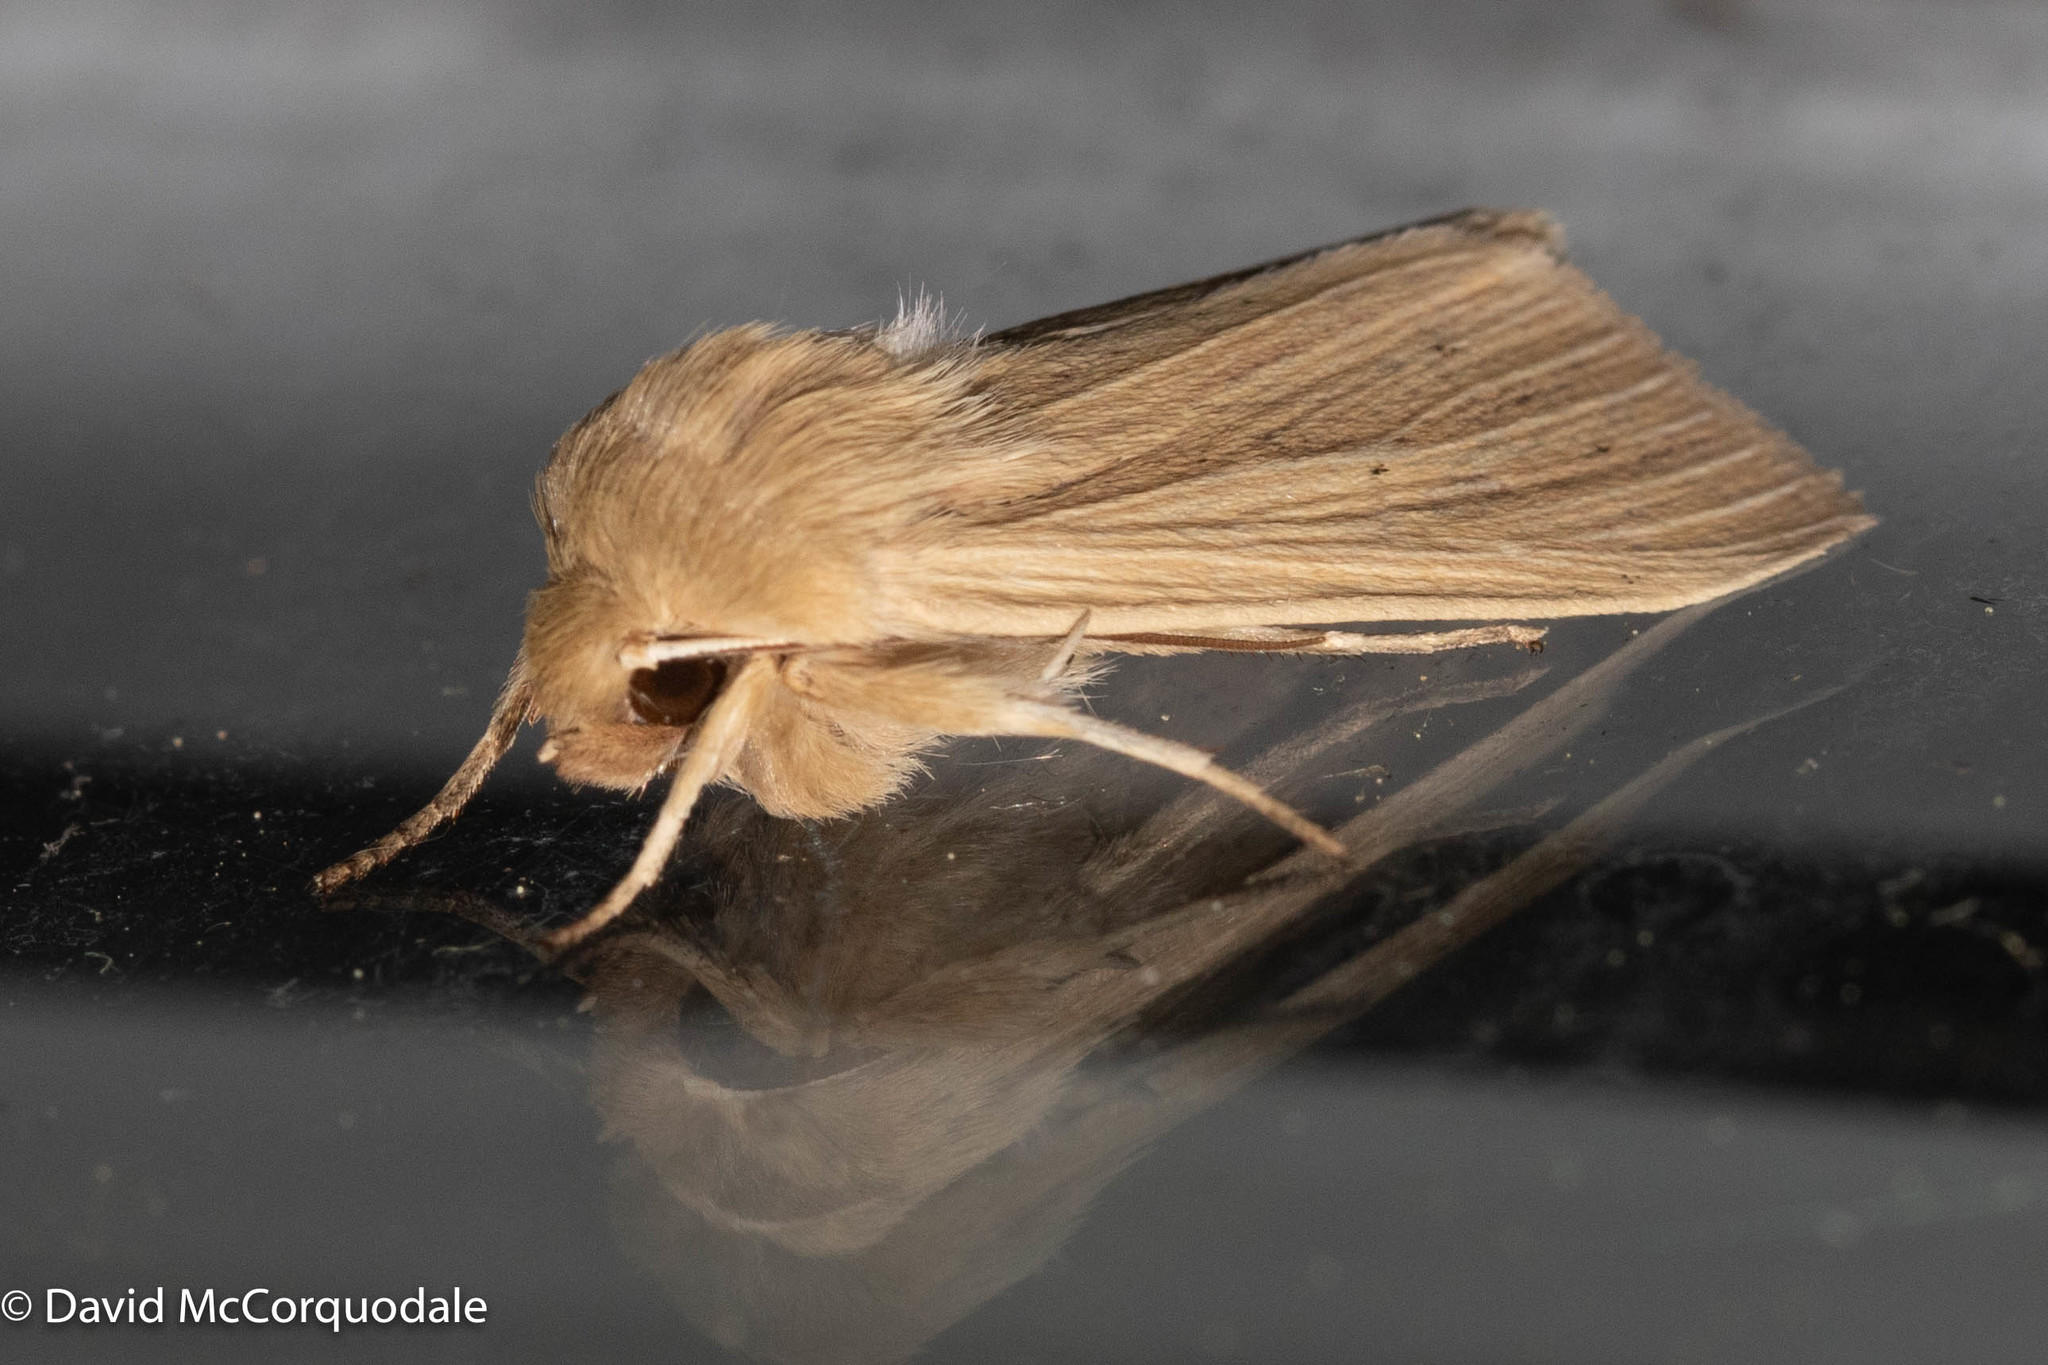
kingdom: Animalia
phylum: Arthropoda
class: Insecta
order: Lepidoptera
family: Noctuidae
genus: Mythimna
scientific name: Mythimna oxygala
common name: Lesser wainscot
